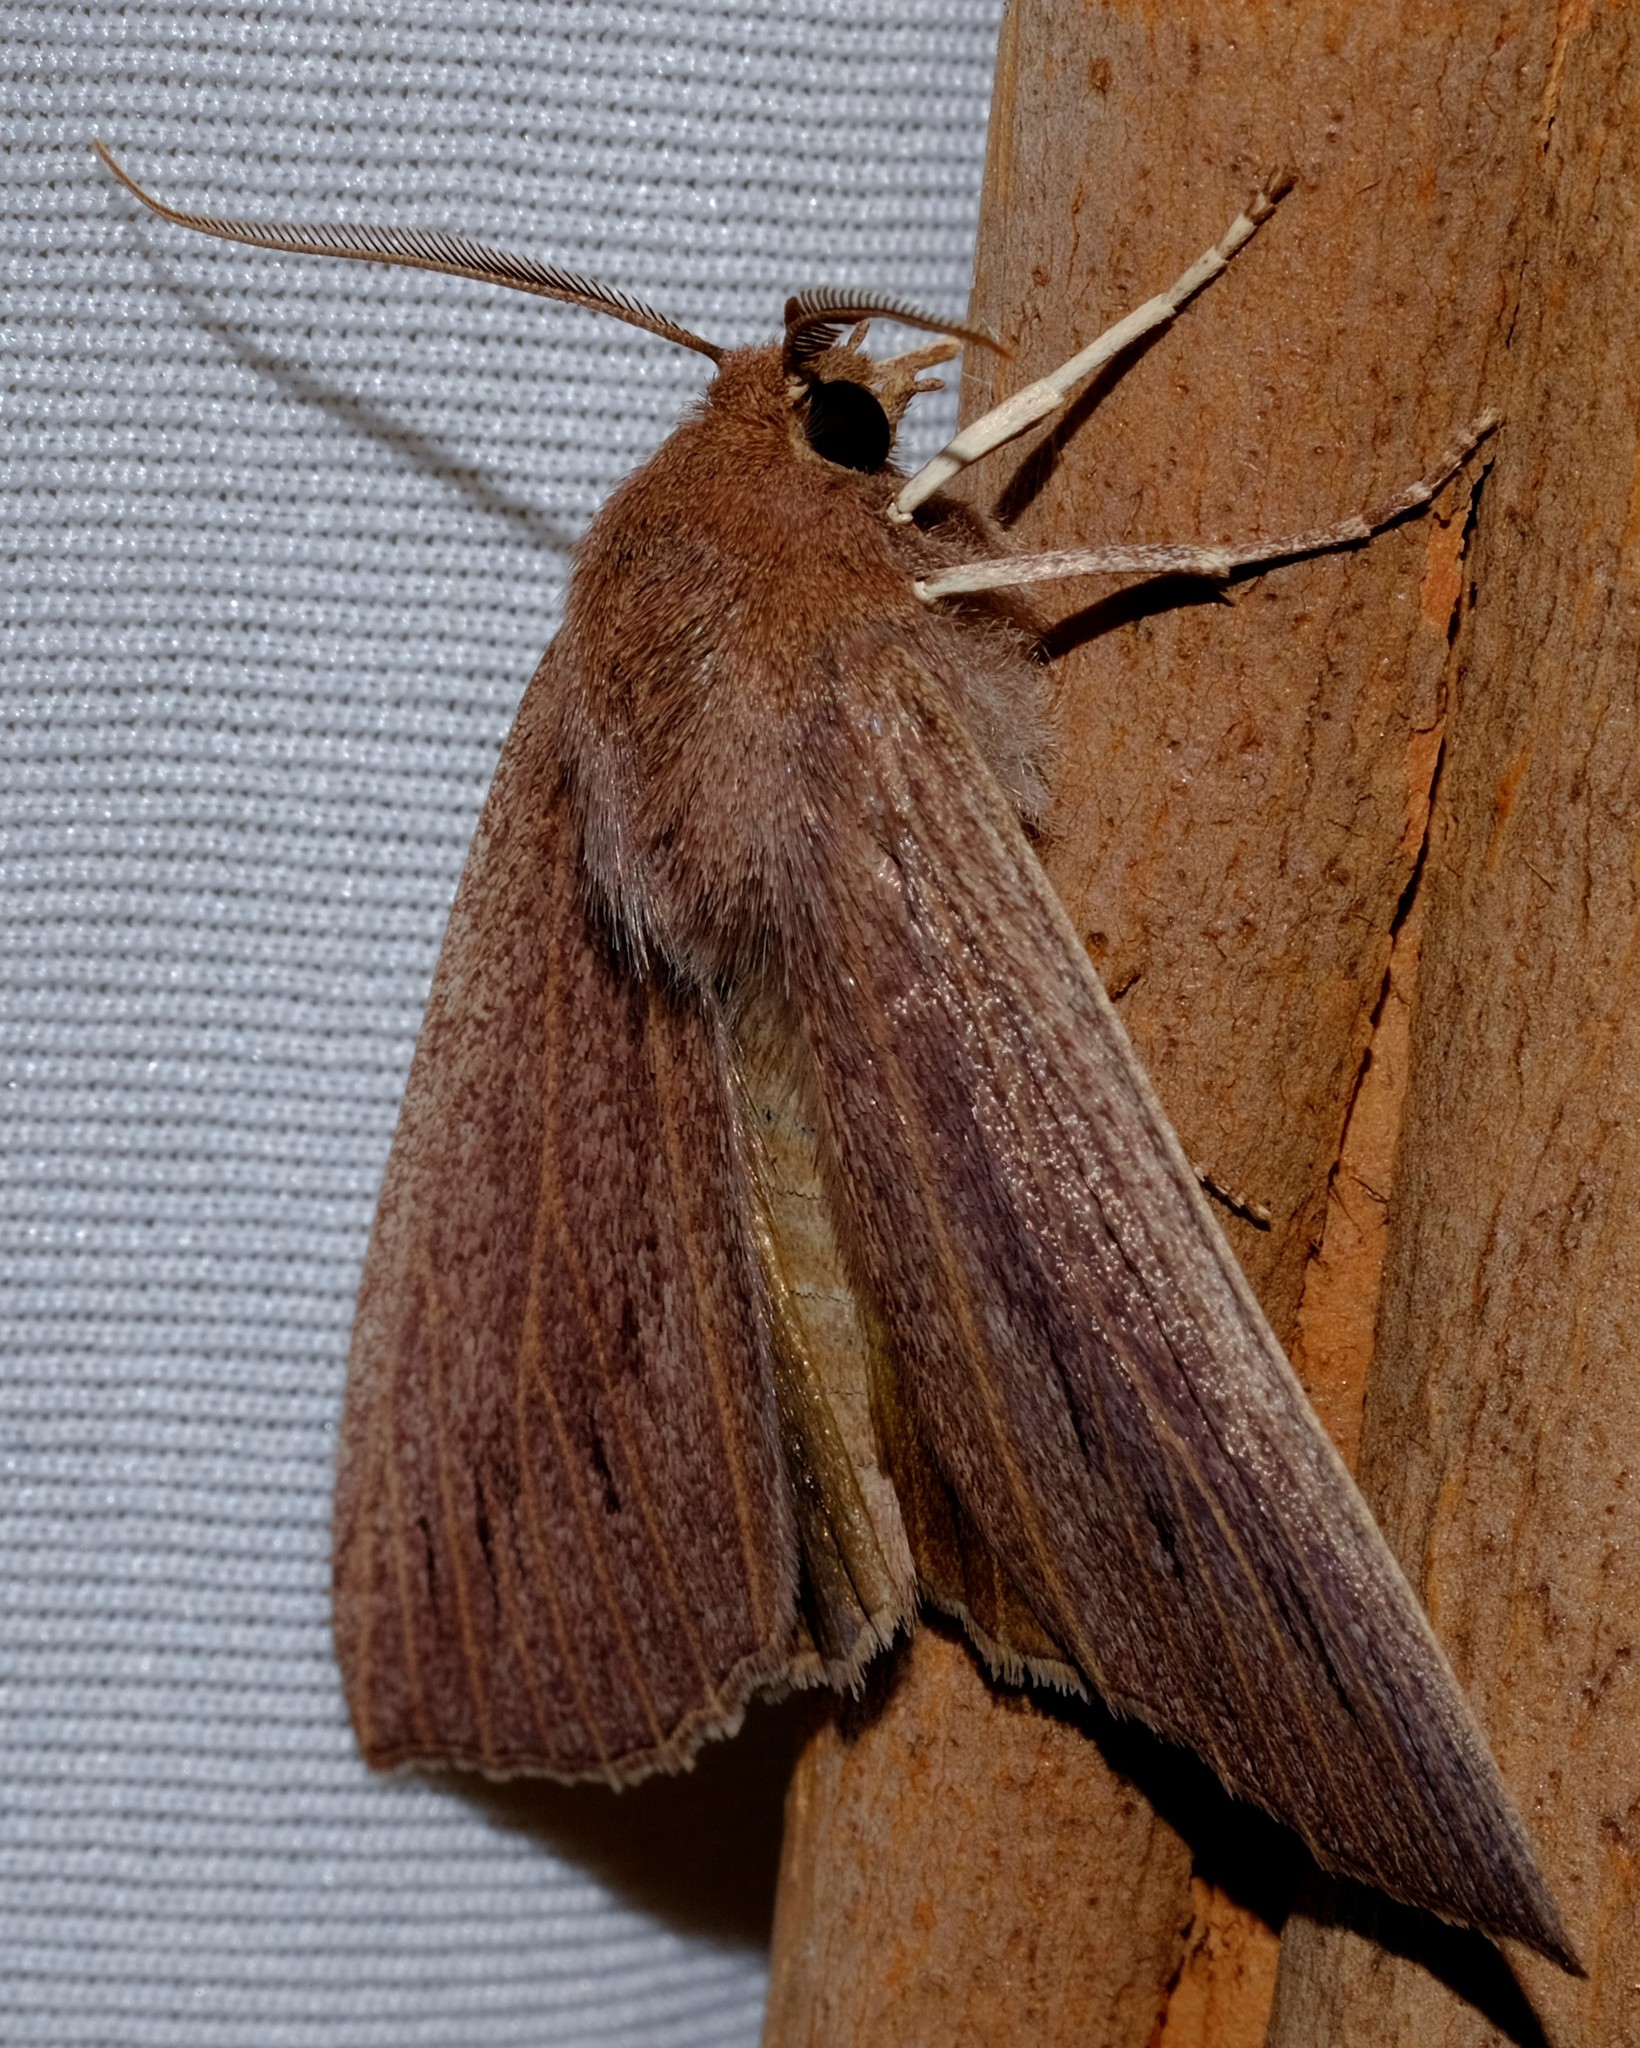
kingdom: Animalia
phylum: Arthropoda
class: Insecta
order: Lepidoptera
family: Geometridae
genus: Palleopa
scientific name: Palleopa innotata
